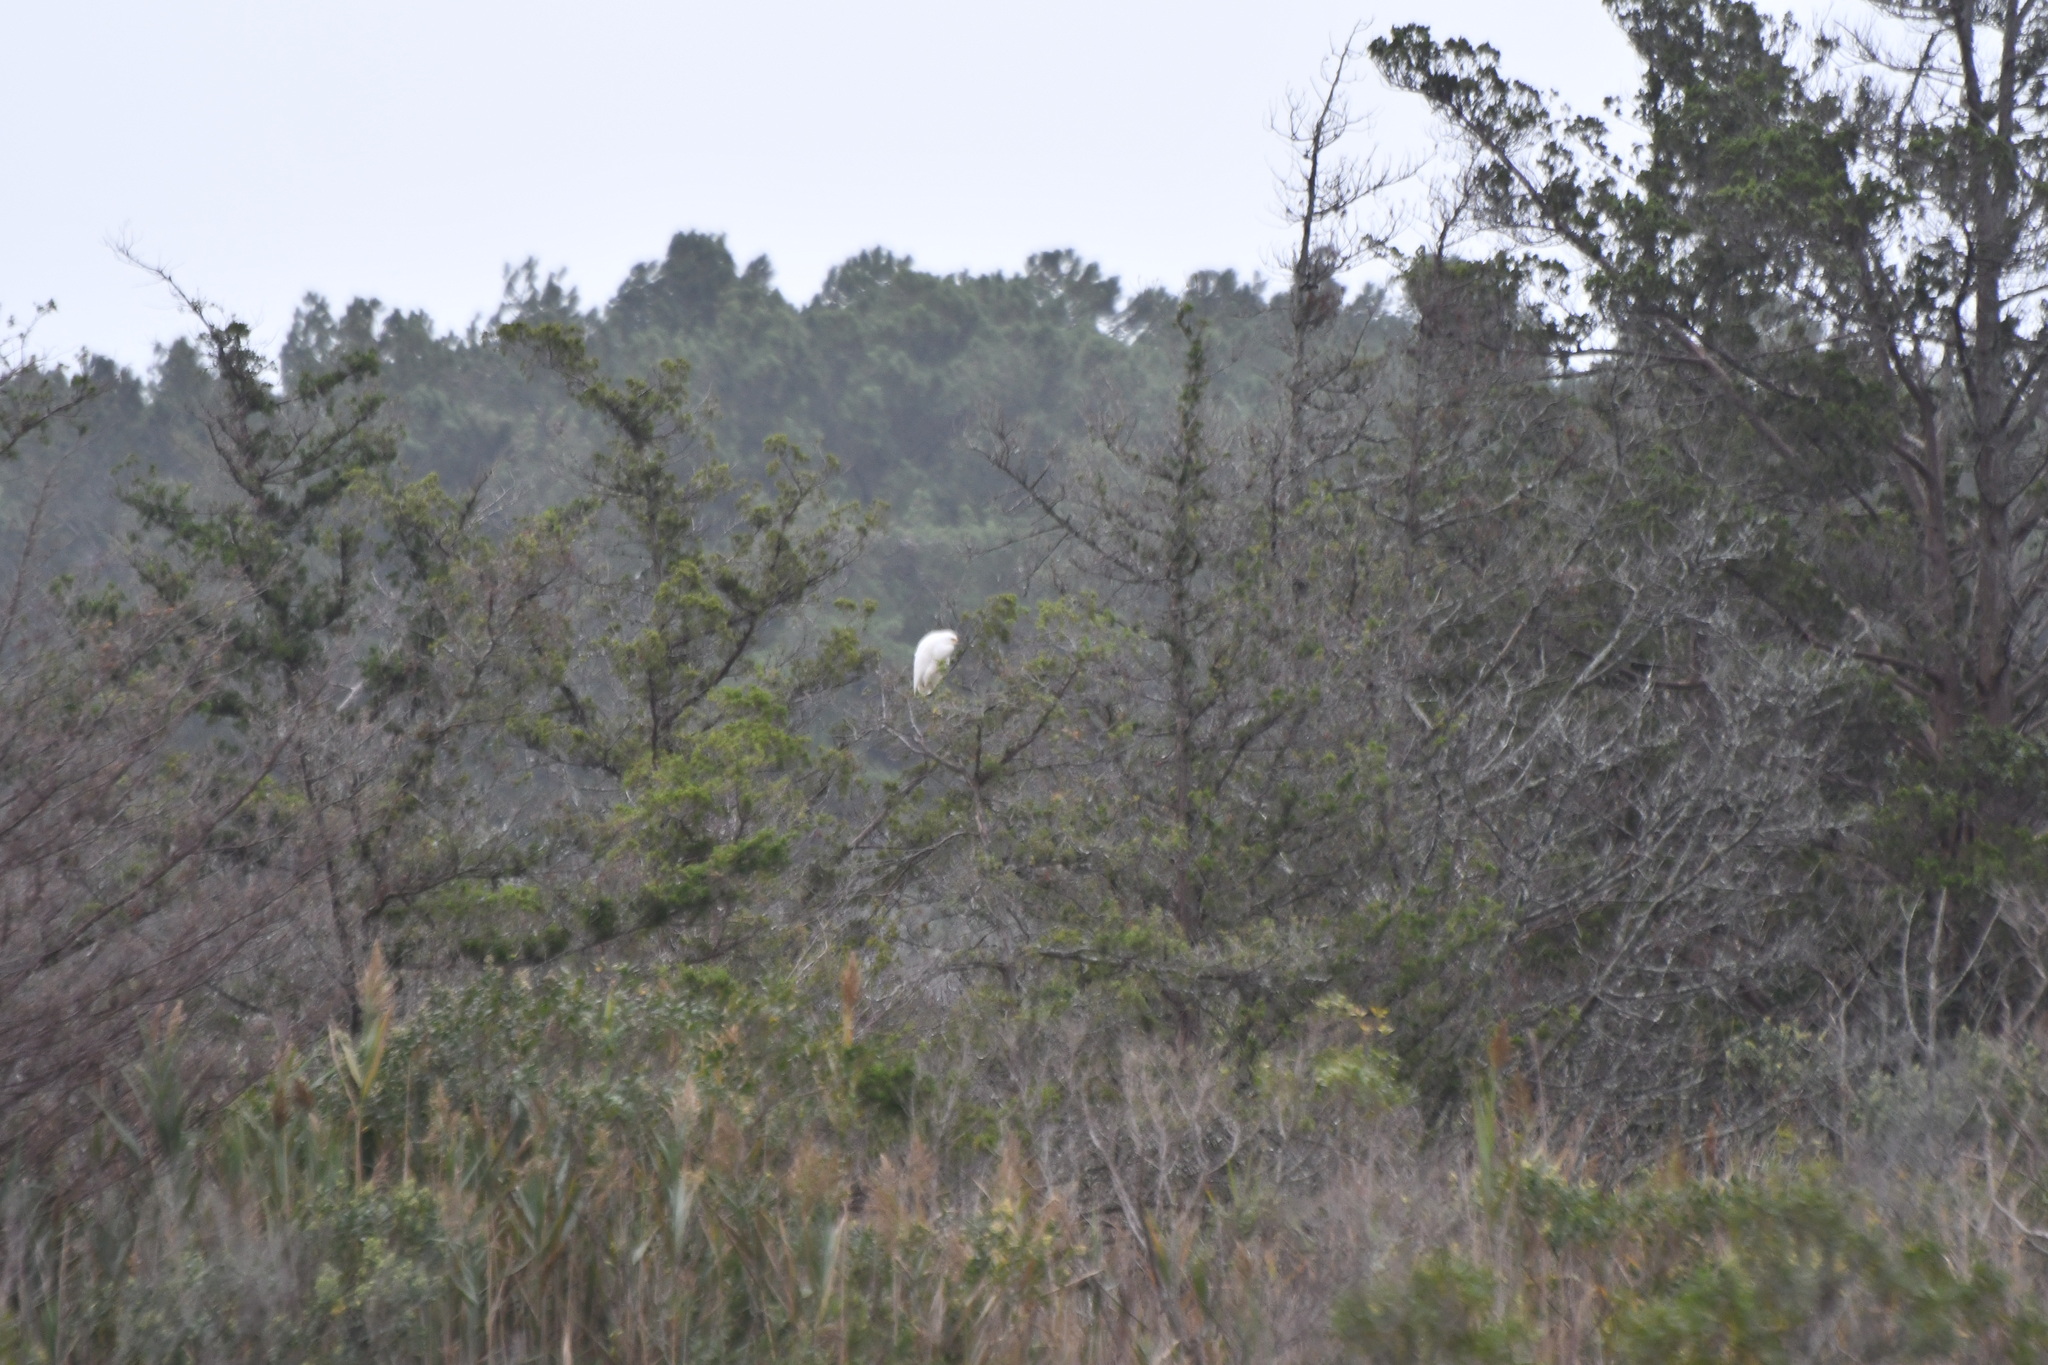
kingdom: Animalia
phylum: Chordata
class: Aves
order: Pelecaniformes
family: Ardeidae
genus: Egretta
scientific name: Egretta thula
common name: Snowy egret
